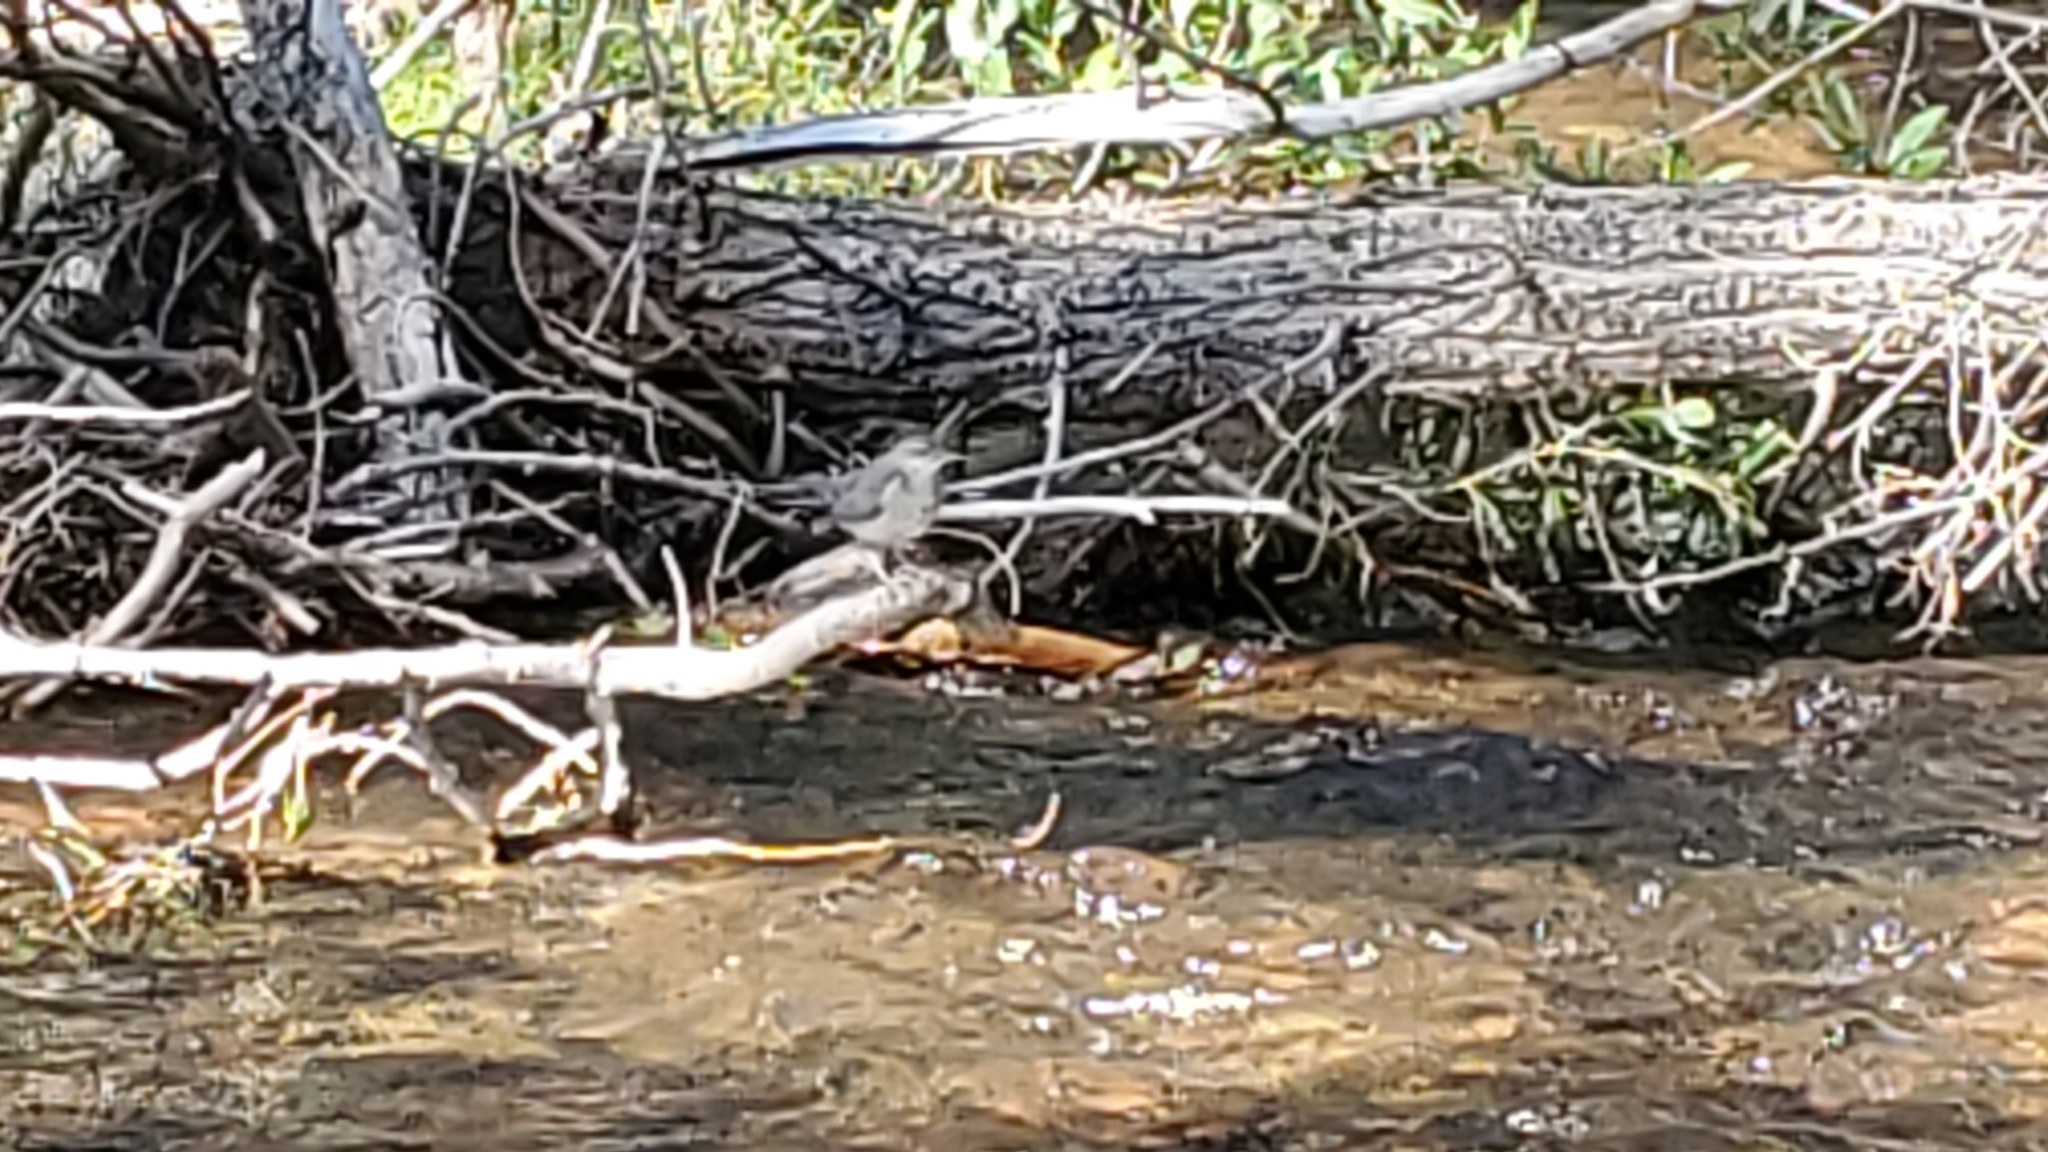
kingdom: Animalia
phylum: Chordata
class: Aves
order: Passeriformes
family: Cinclidae
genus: Cinclus
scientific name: Cinclus mexicanus
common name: American dipper
